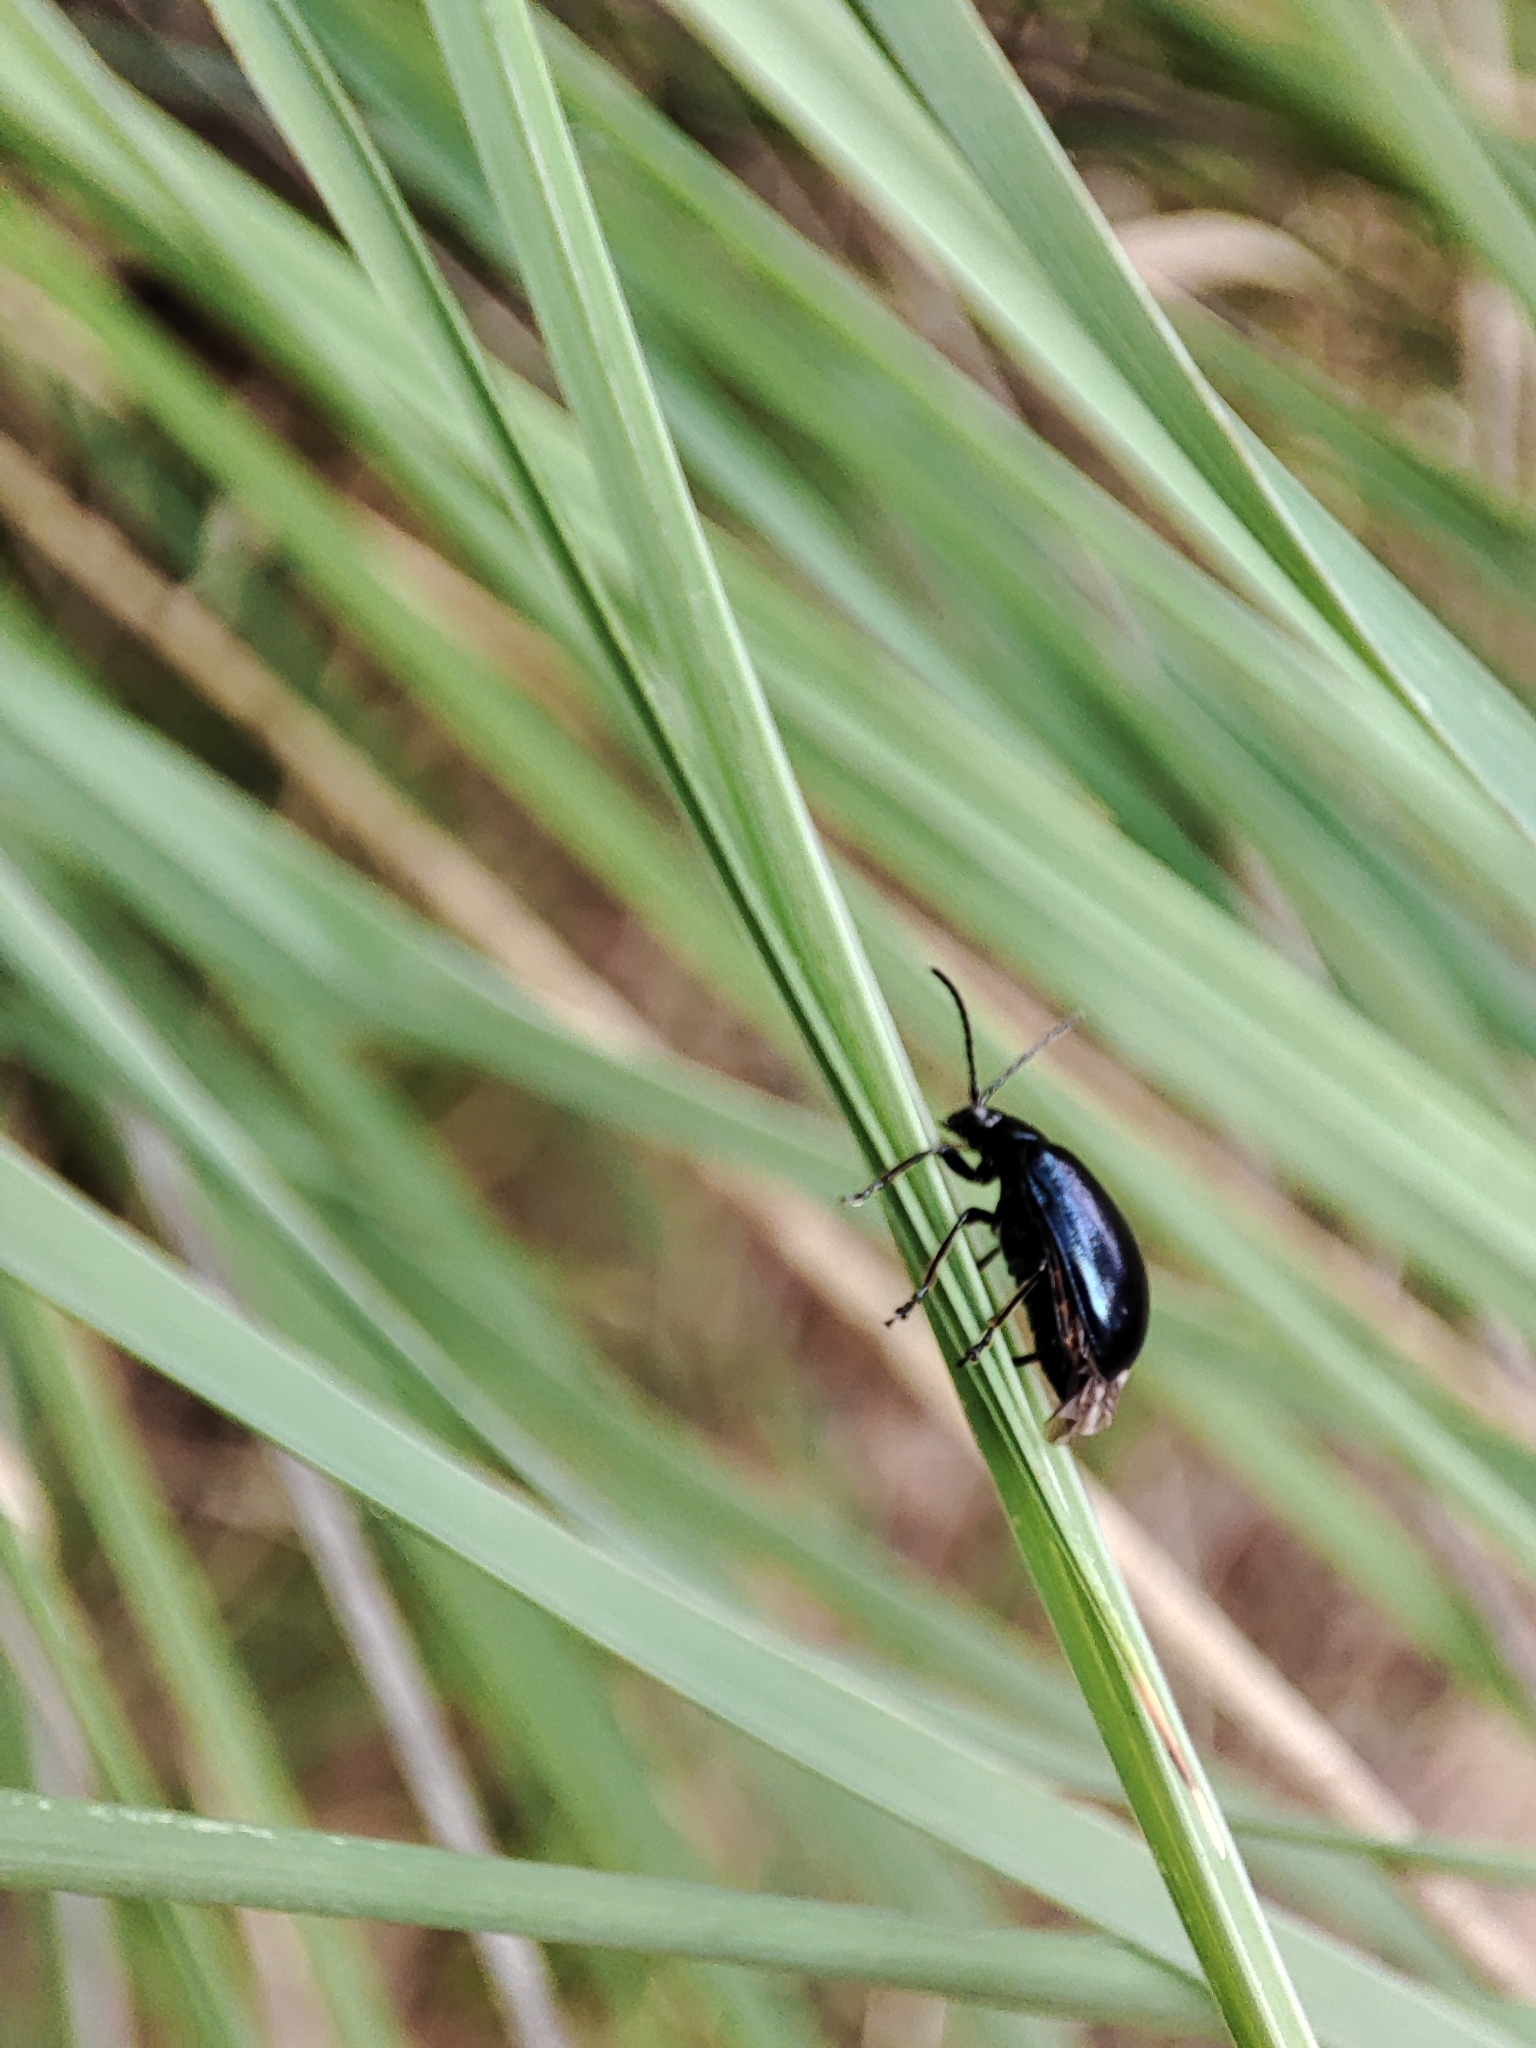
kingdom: Animalia
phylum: Arthropoda
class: Insecta
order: Coleoptera
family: Chrysomelidae
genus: Agelastica
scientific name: Agelastica alni
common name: Alder leaf beetle
